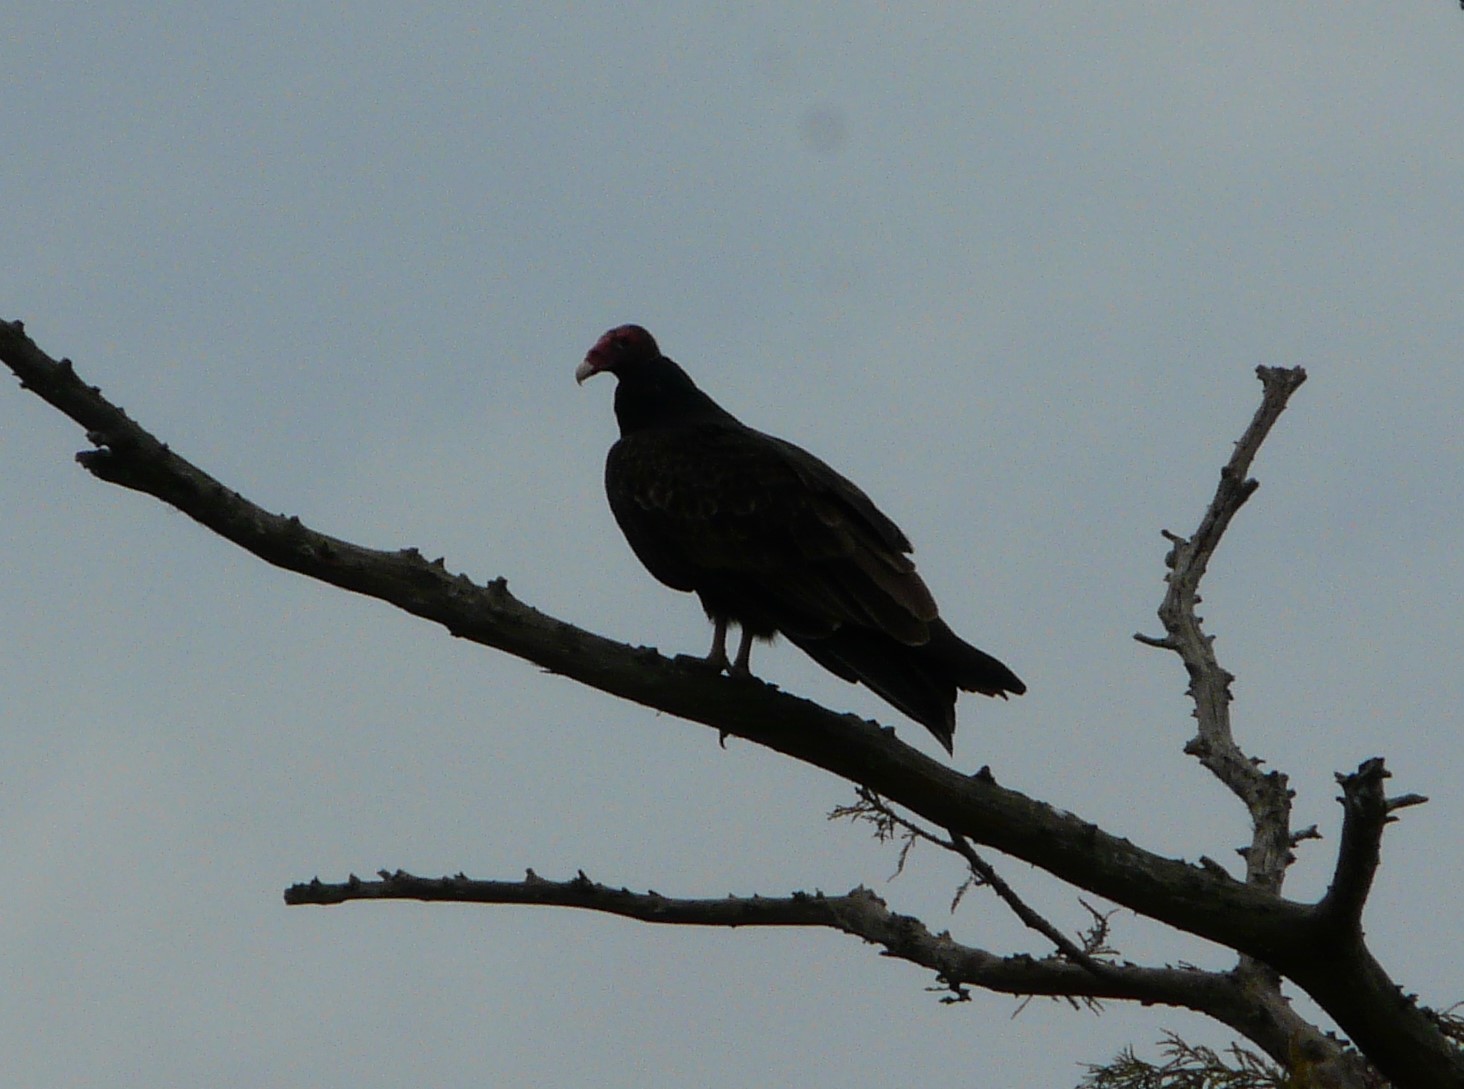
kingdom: Animalia
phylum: Chordata
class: Aves
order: Accipitriformes
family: Cathartidae
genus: Cathartes
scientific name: Cathartes aura
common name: Turkey vulture
